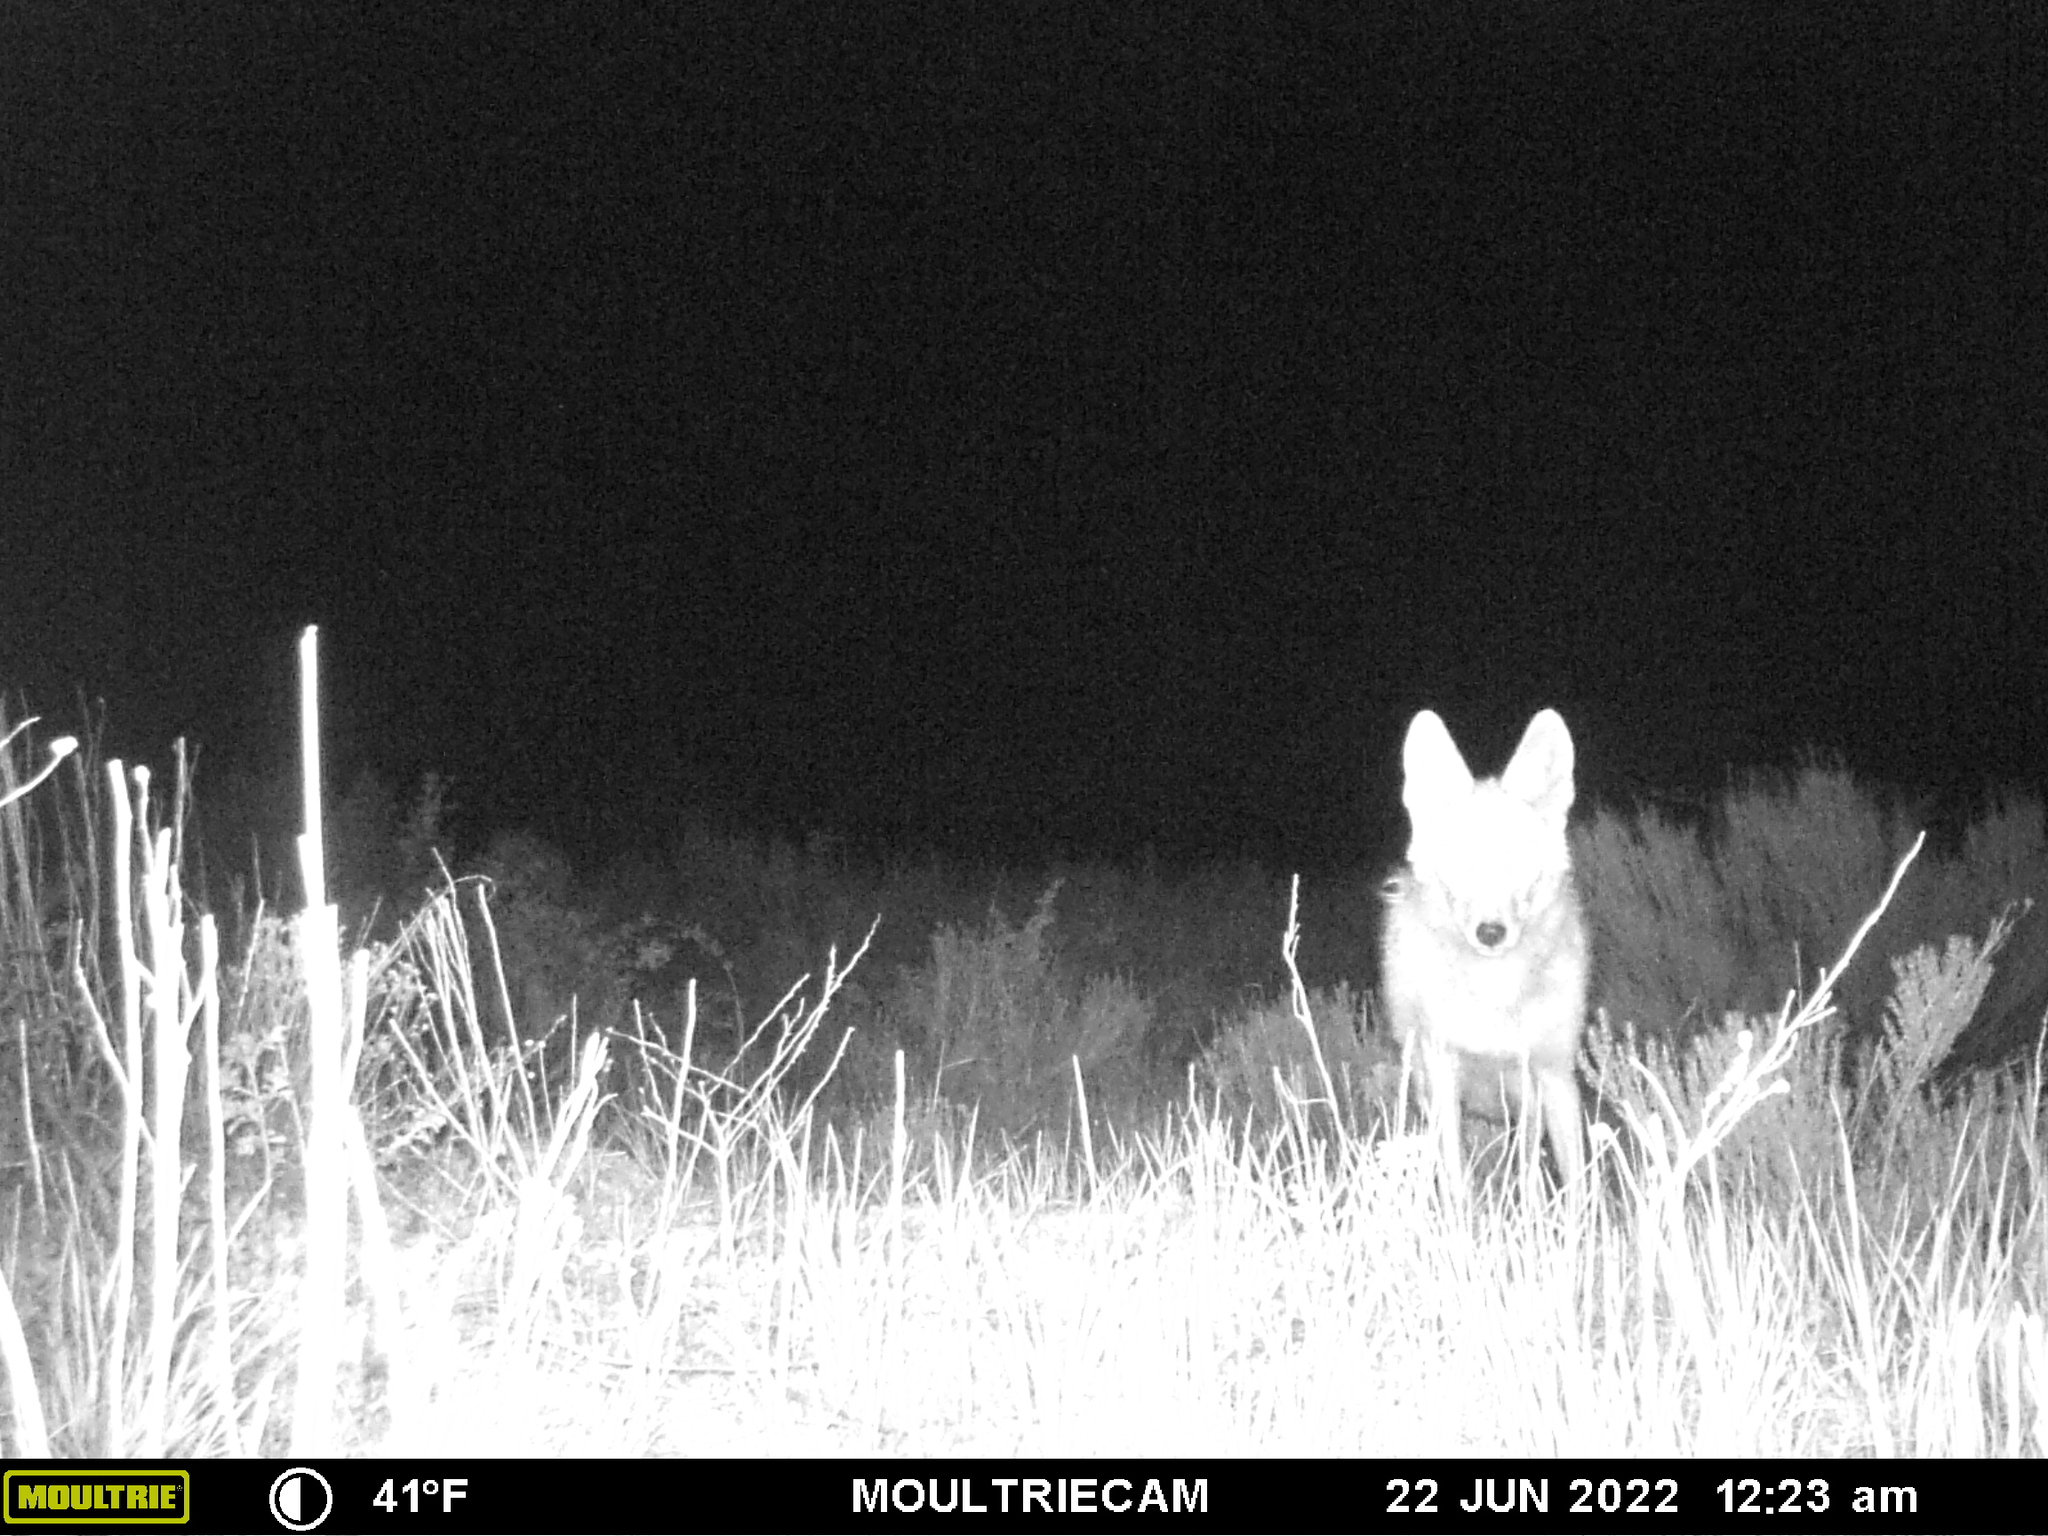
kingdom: Animalia
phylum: Chordata
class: Mammalia
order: Carnivora
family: Canidae
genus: Canis
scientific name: Canis latrans
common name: Coyote
